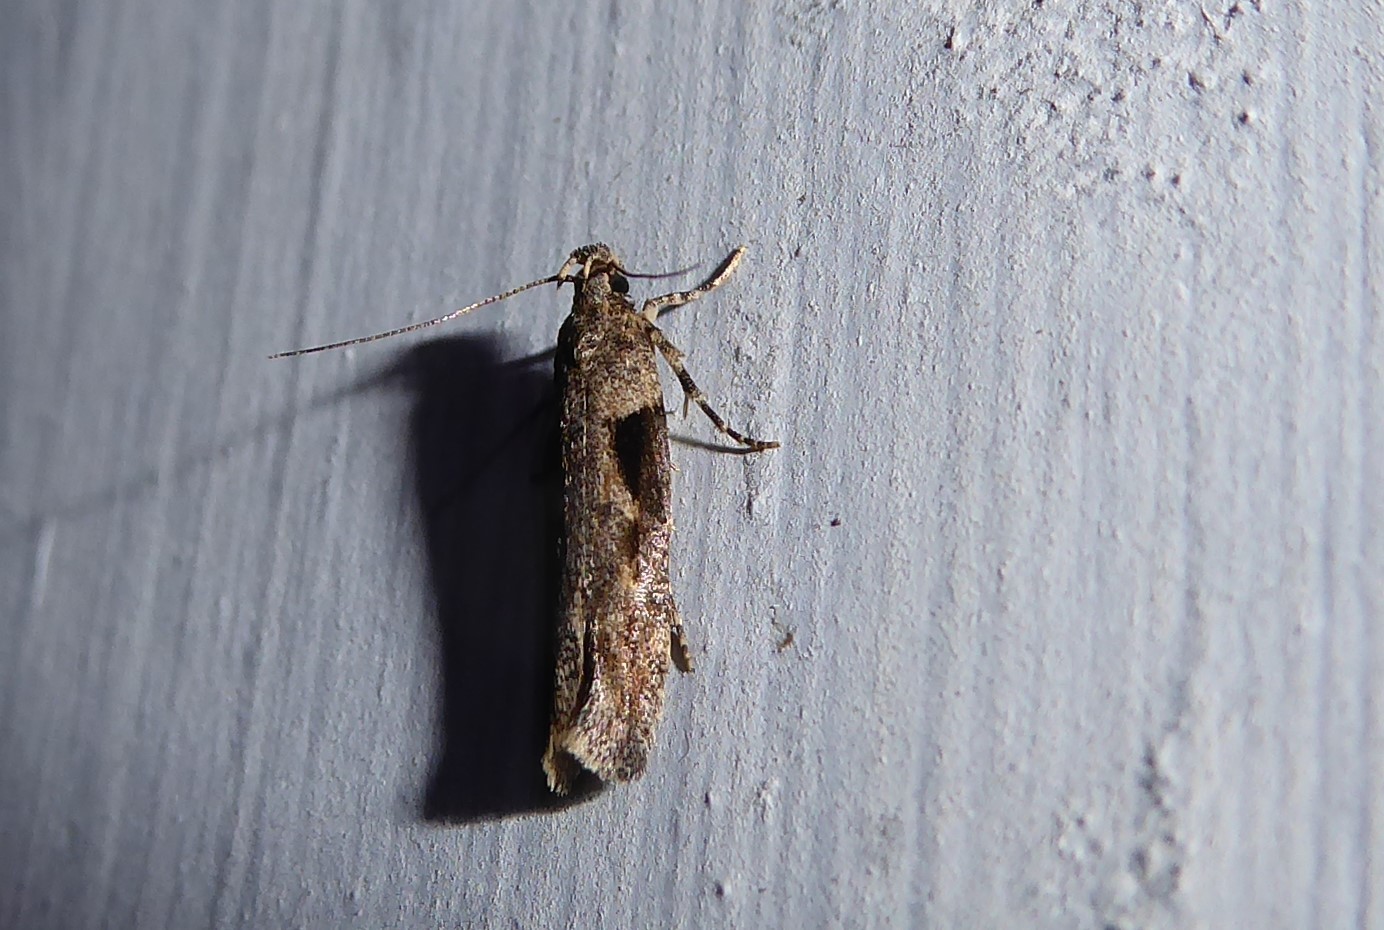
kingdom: Animalia
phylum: Arthropoda
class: Insecta
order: Lepidoptera
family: Gelechiidae
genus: Symmetrischema
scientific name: Symmetrischema tangolias
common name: Moth
